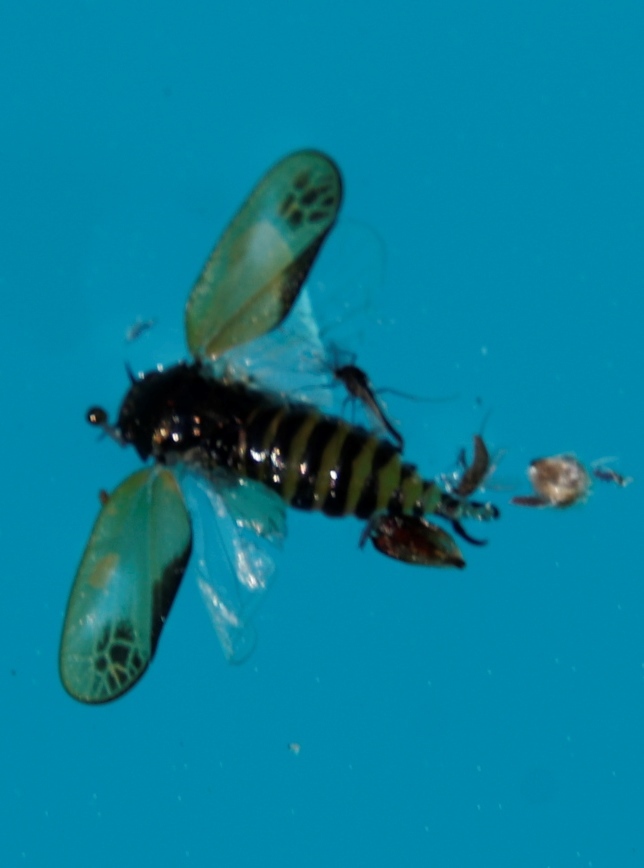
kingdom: Animalia
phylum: Arthropoda
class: Insecta
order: Hemiptera
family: Cercopidae
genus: Rhinaulax
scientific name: Rhinaulax analis
